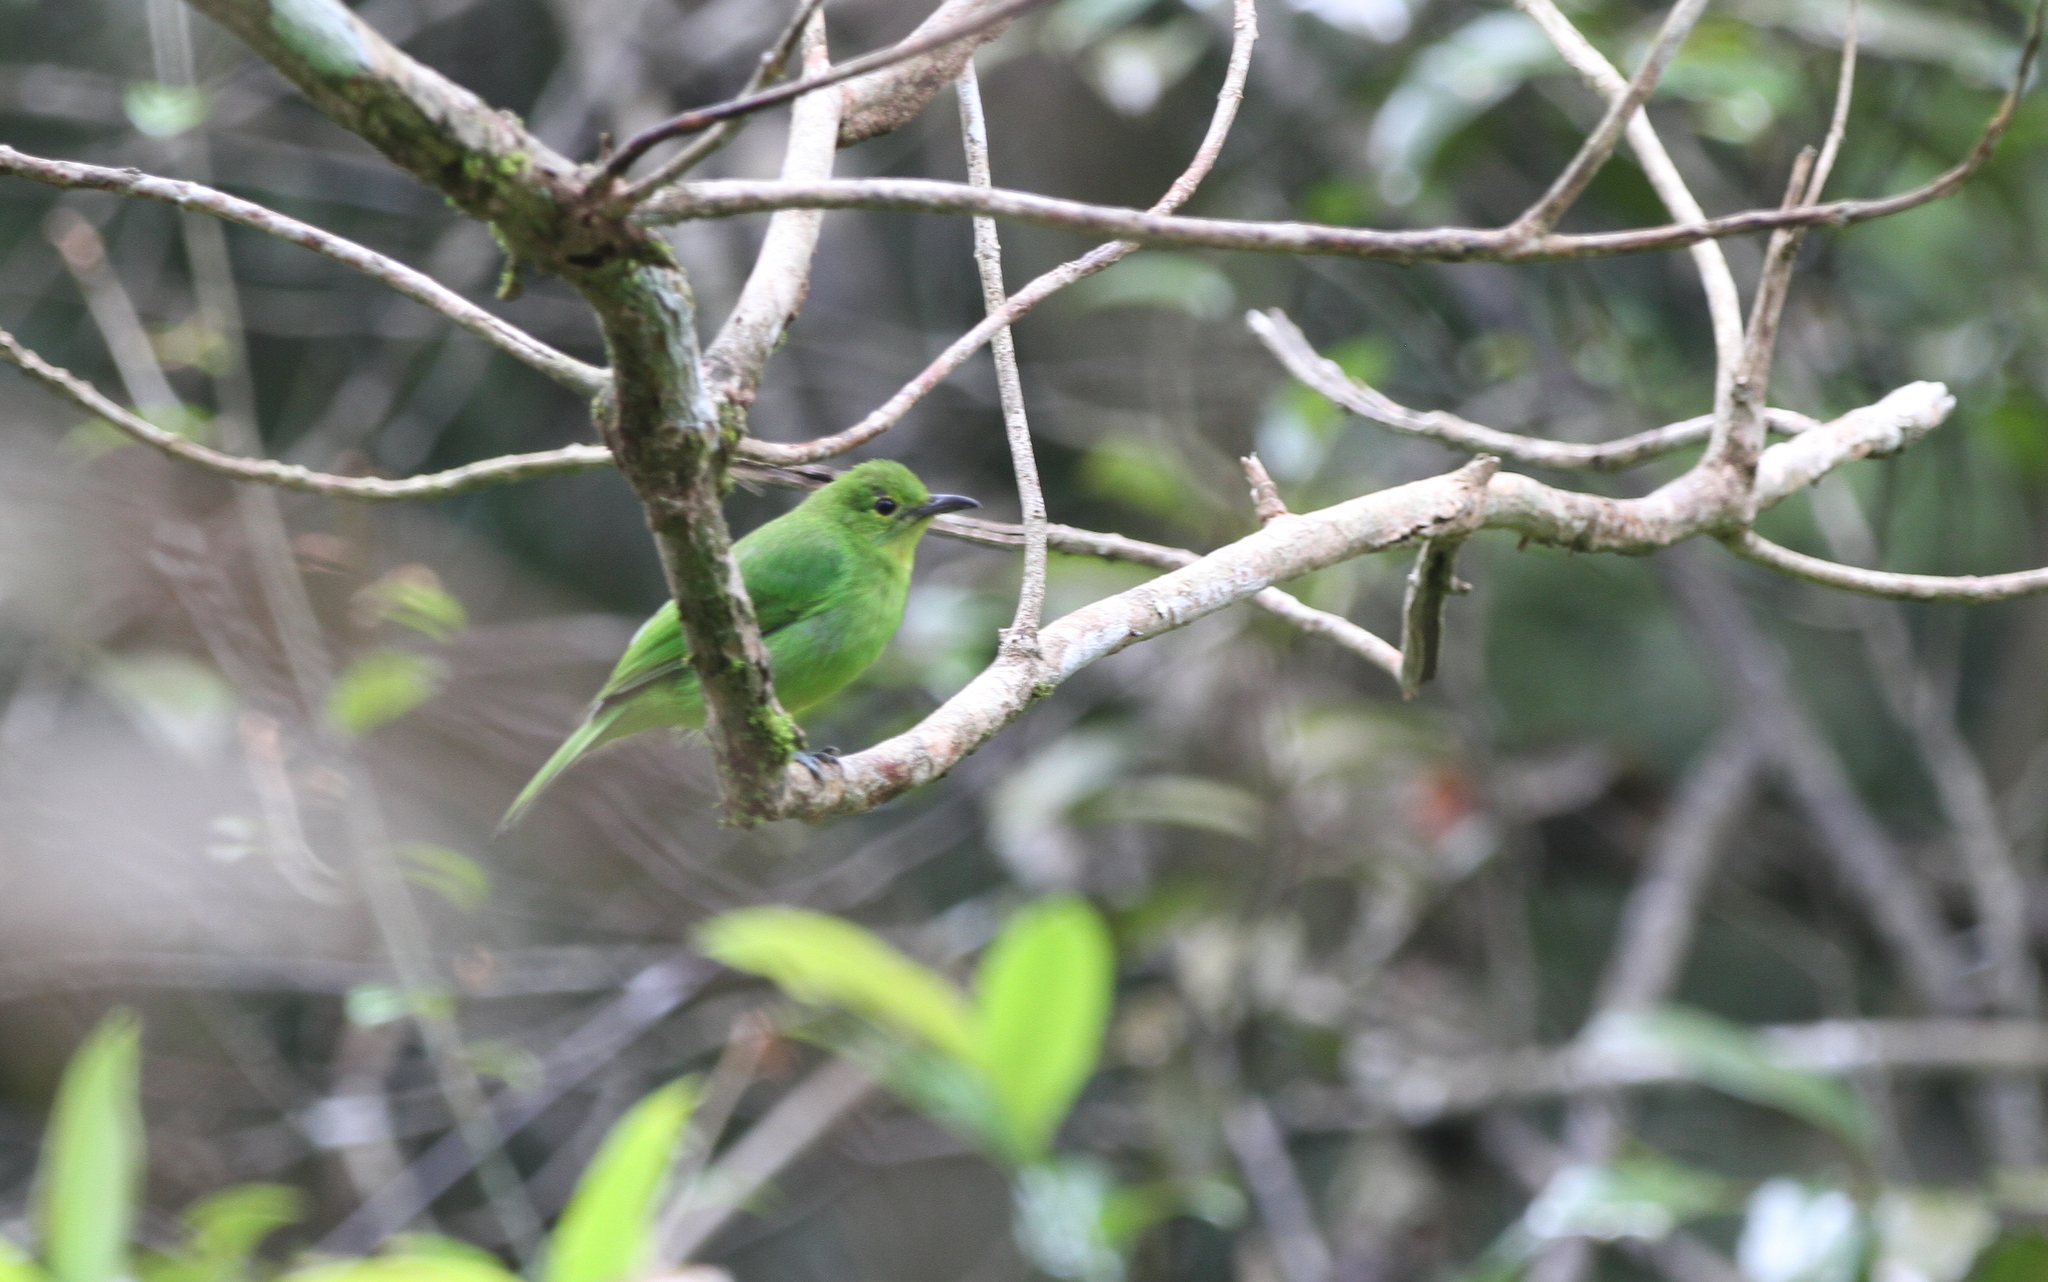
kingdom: Animalia
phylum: Chordata
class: Aves
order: Passeriformes
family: Chloropseidae
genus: Chloropsis
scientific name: Chloropsis cyanopogon
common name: Lesser green leafbird
